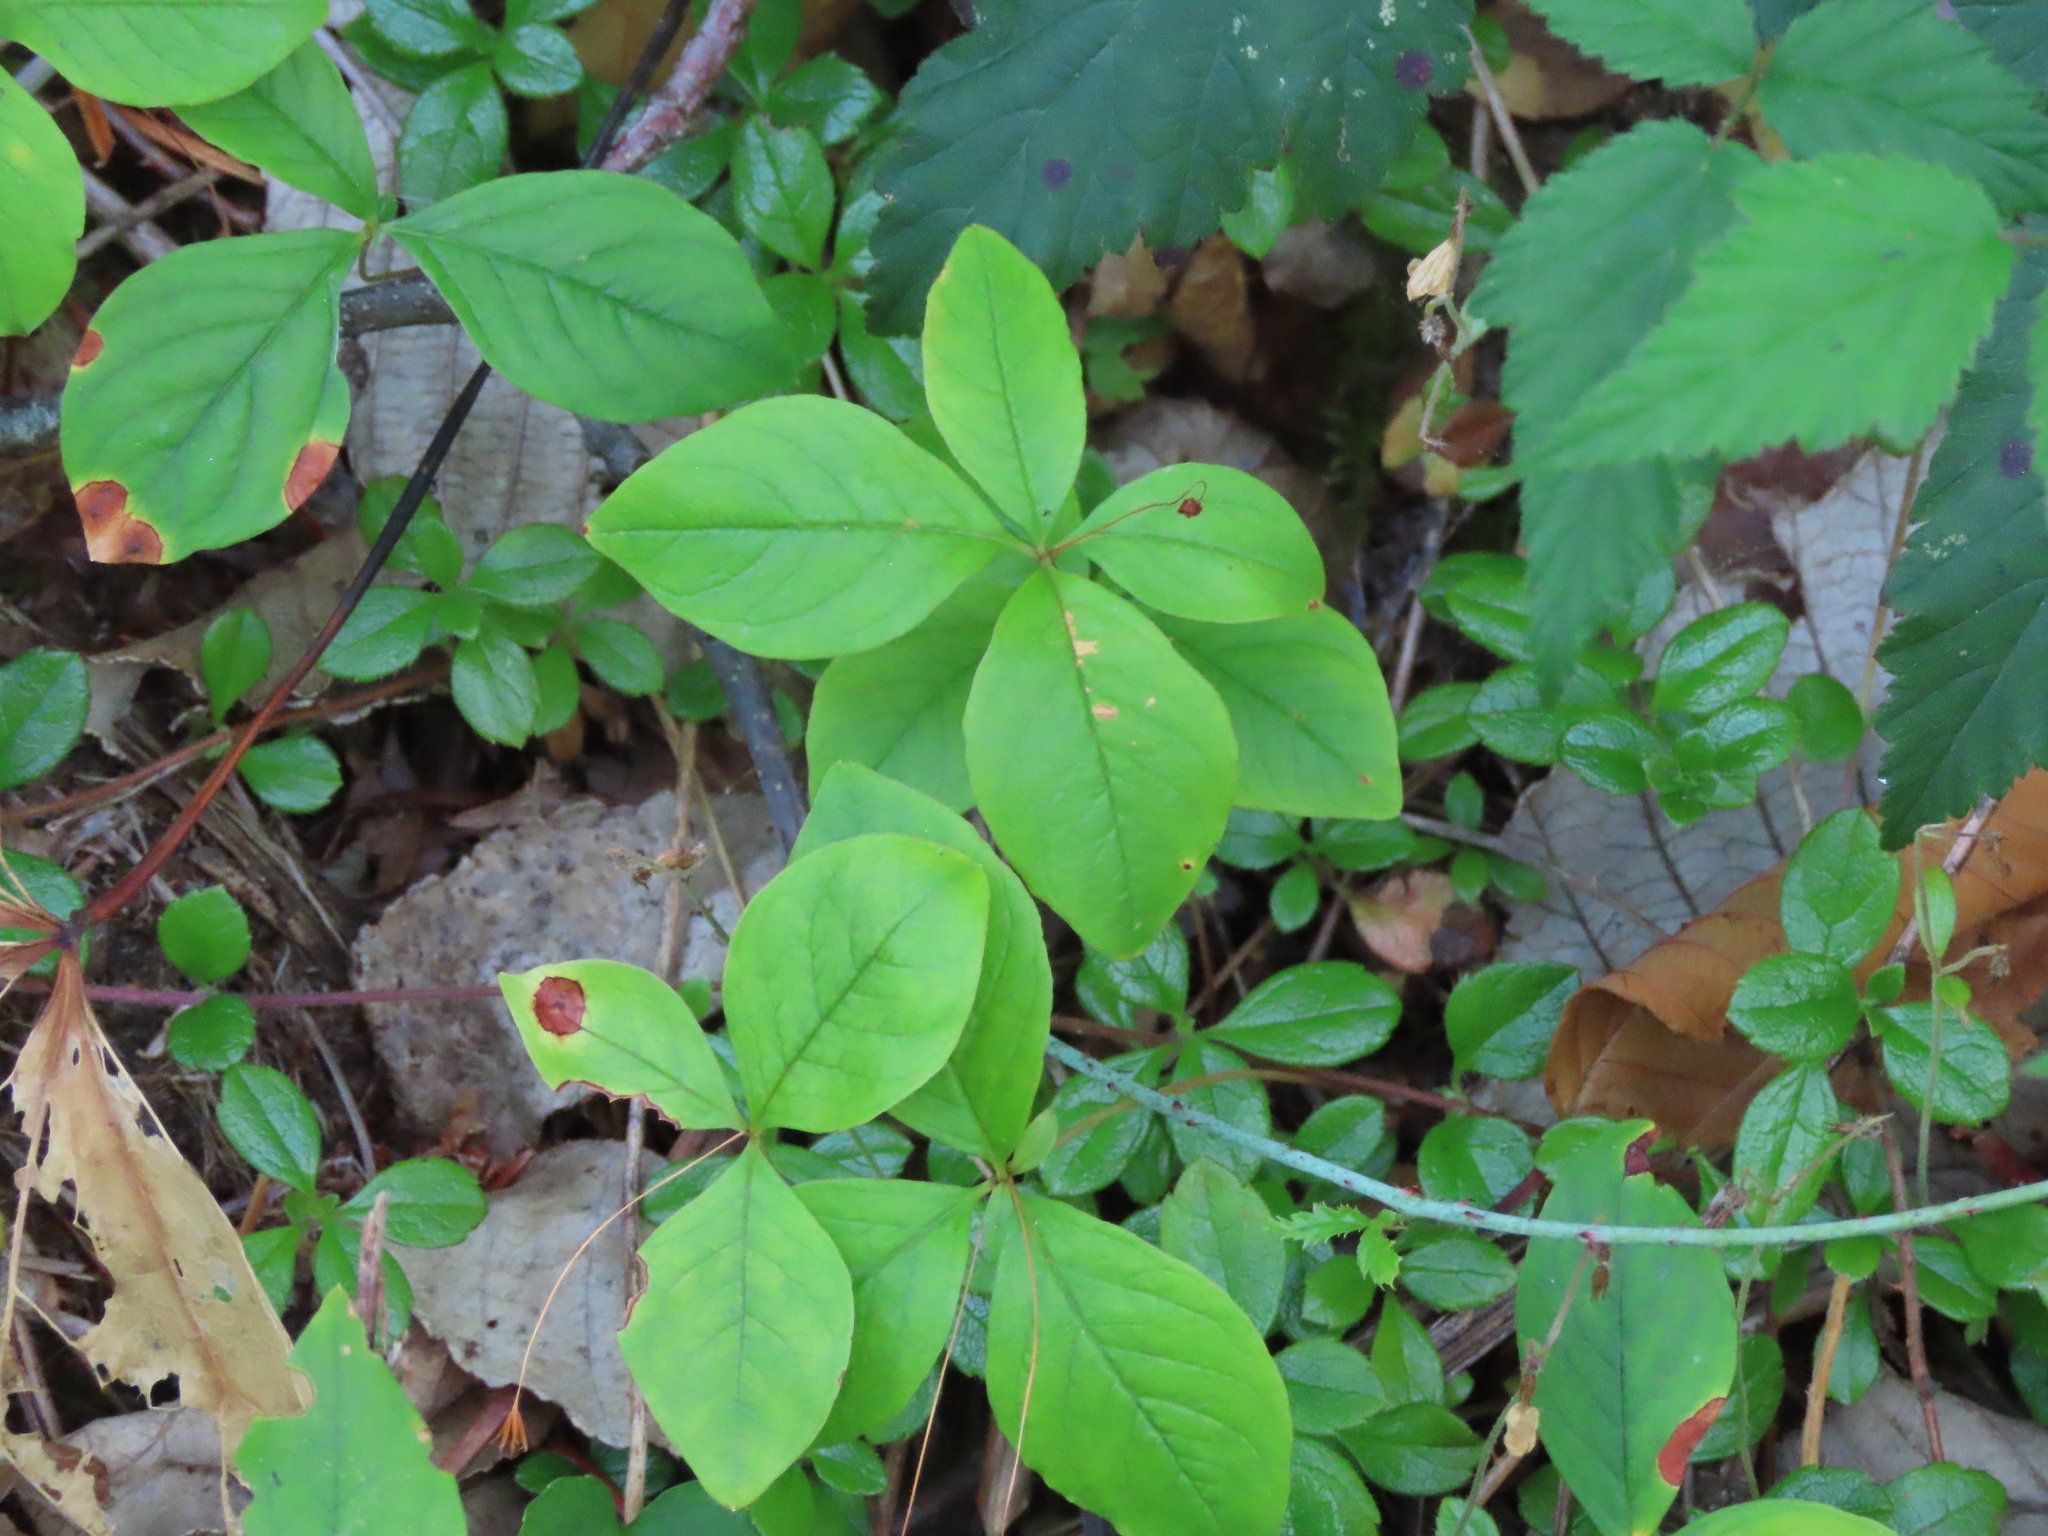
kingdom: Plantae
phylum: Tracheophyta
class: Magnoliopsida
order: Ericales
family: Primulaceae
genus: Lysimachia
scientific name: Lysimachia latifolia
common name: Pacific starflower
